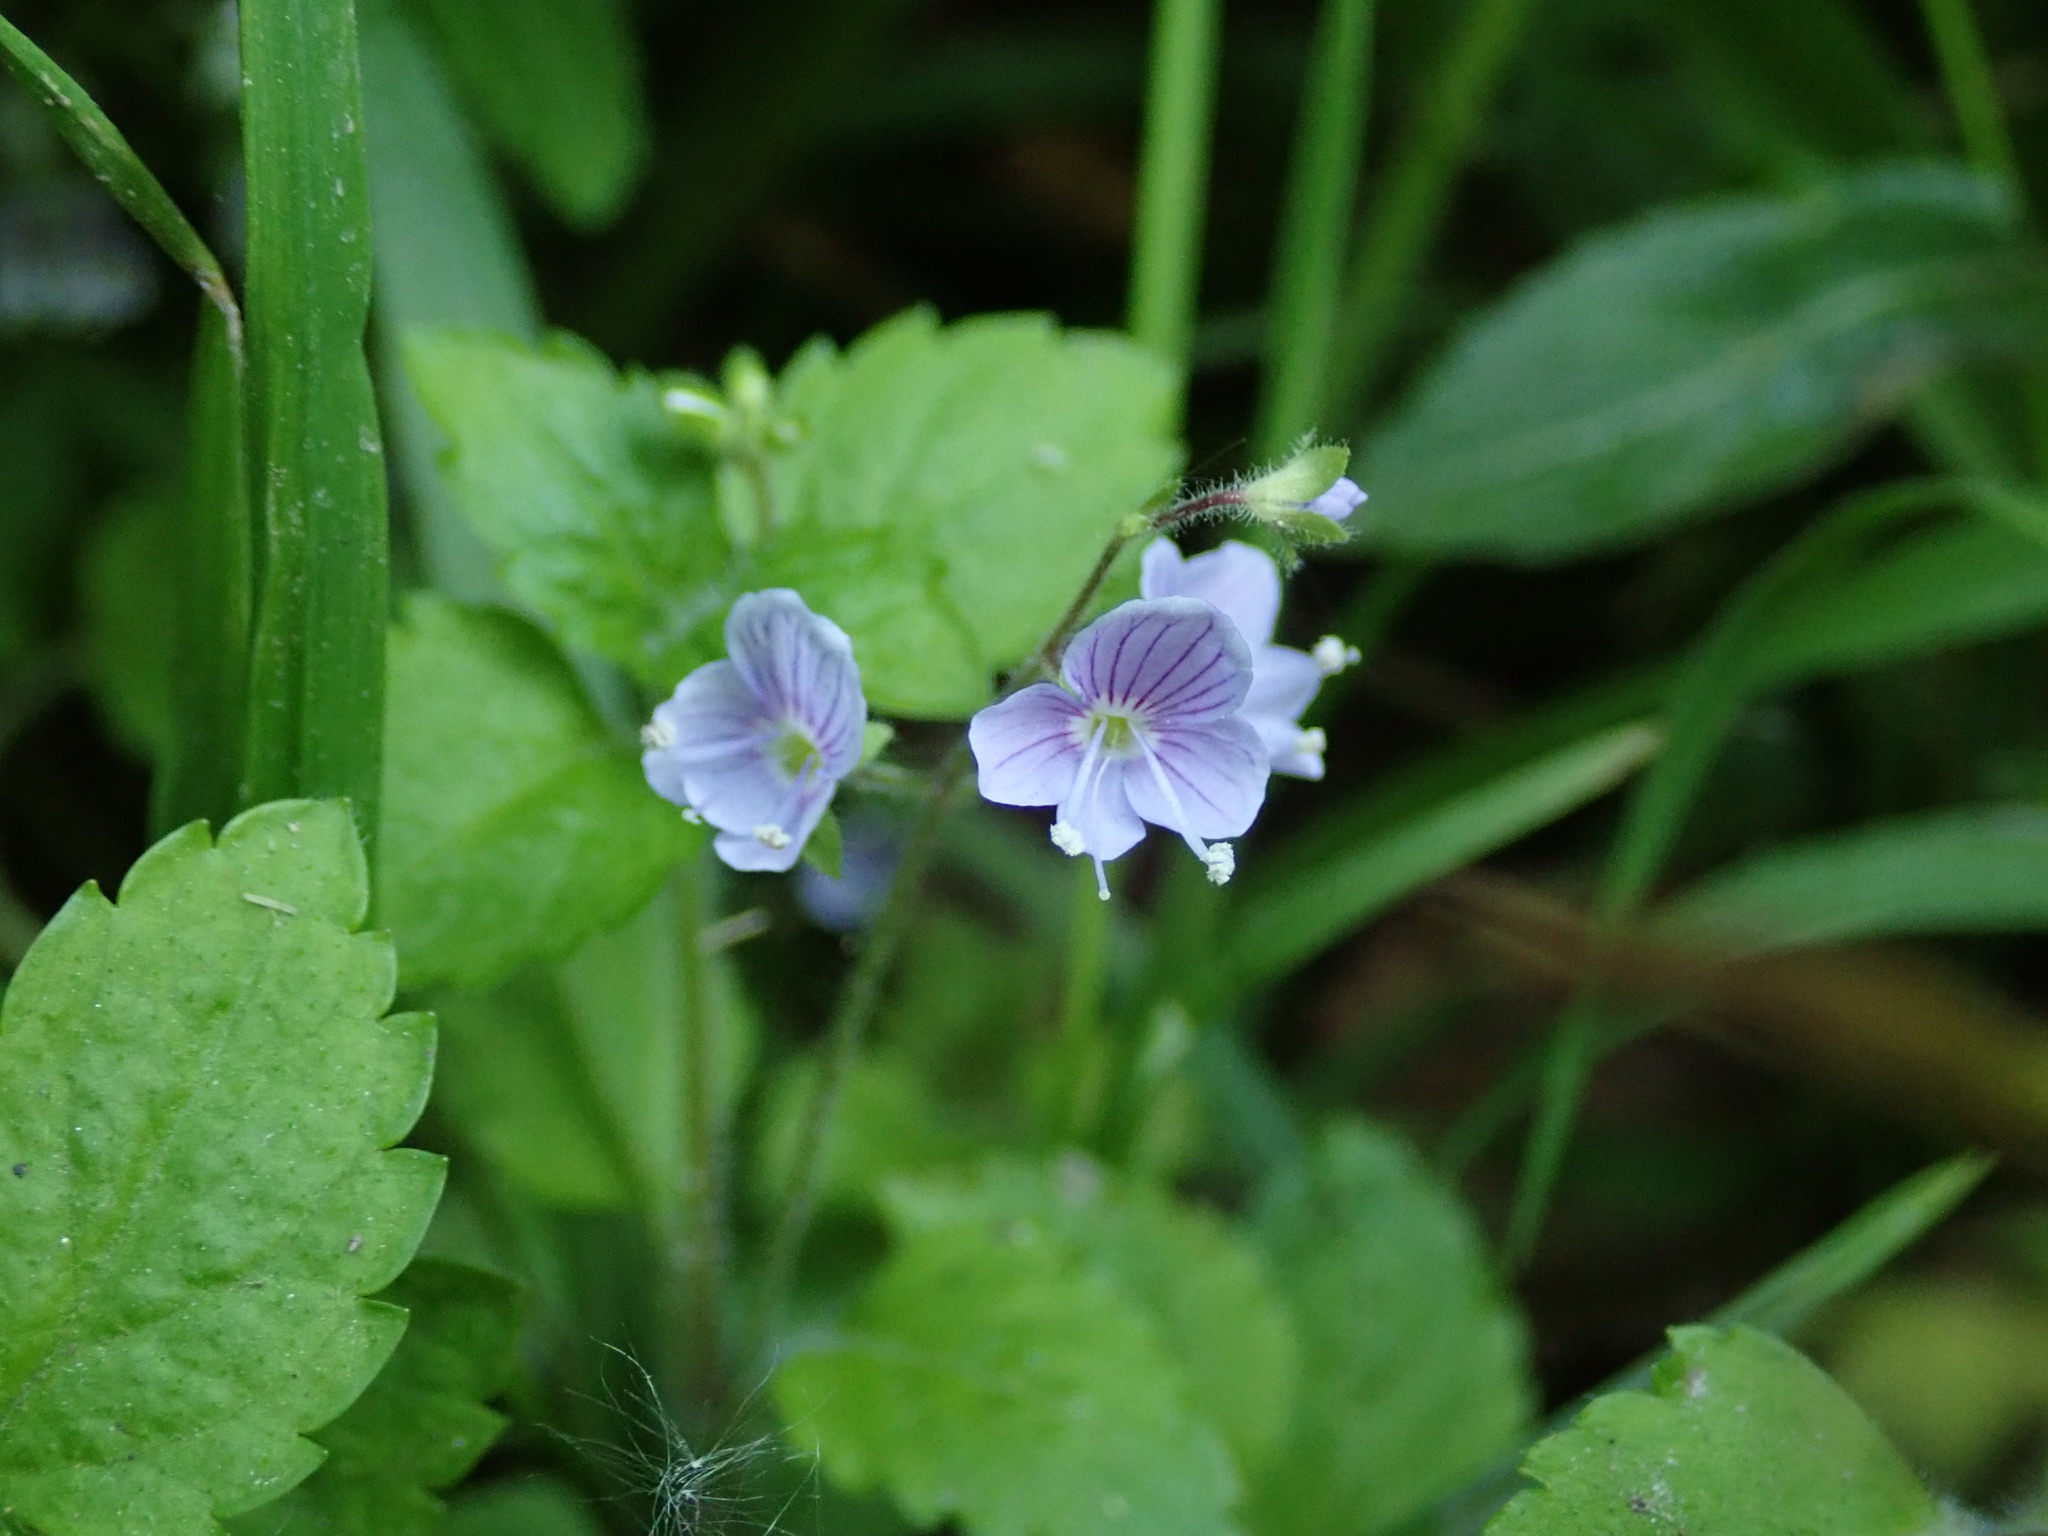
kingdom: Plantae
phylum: Tracheophyta
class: Magnoliopsida
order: Lamiales
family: Plantaginaceae
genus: Veronica
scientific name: Veronica montana
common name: Wood speedwell
